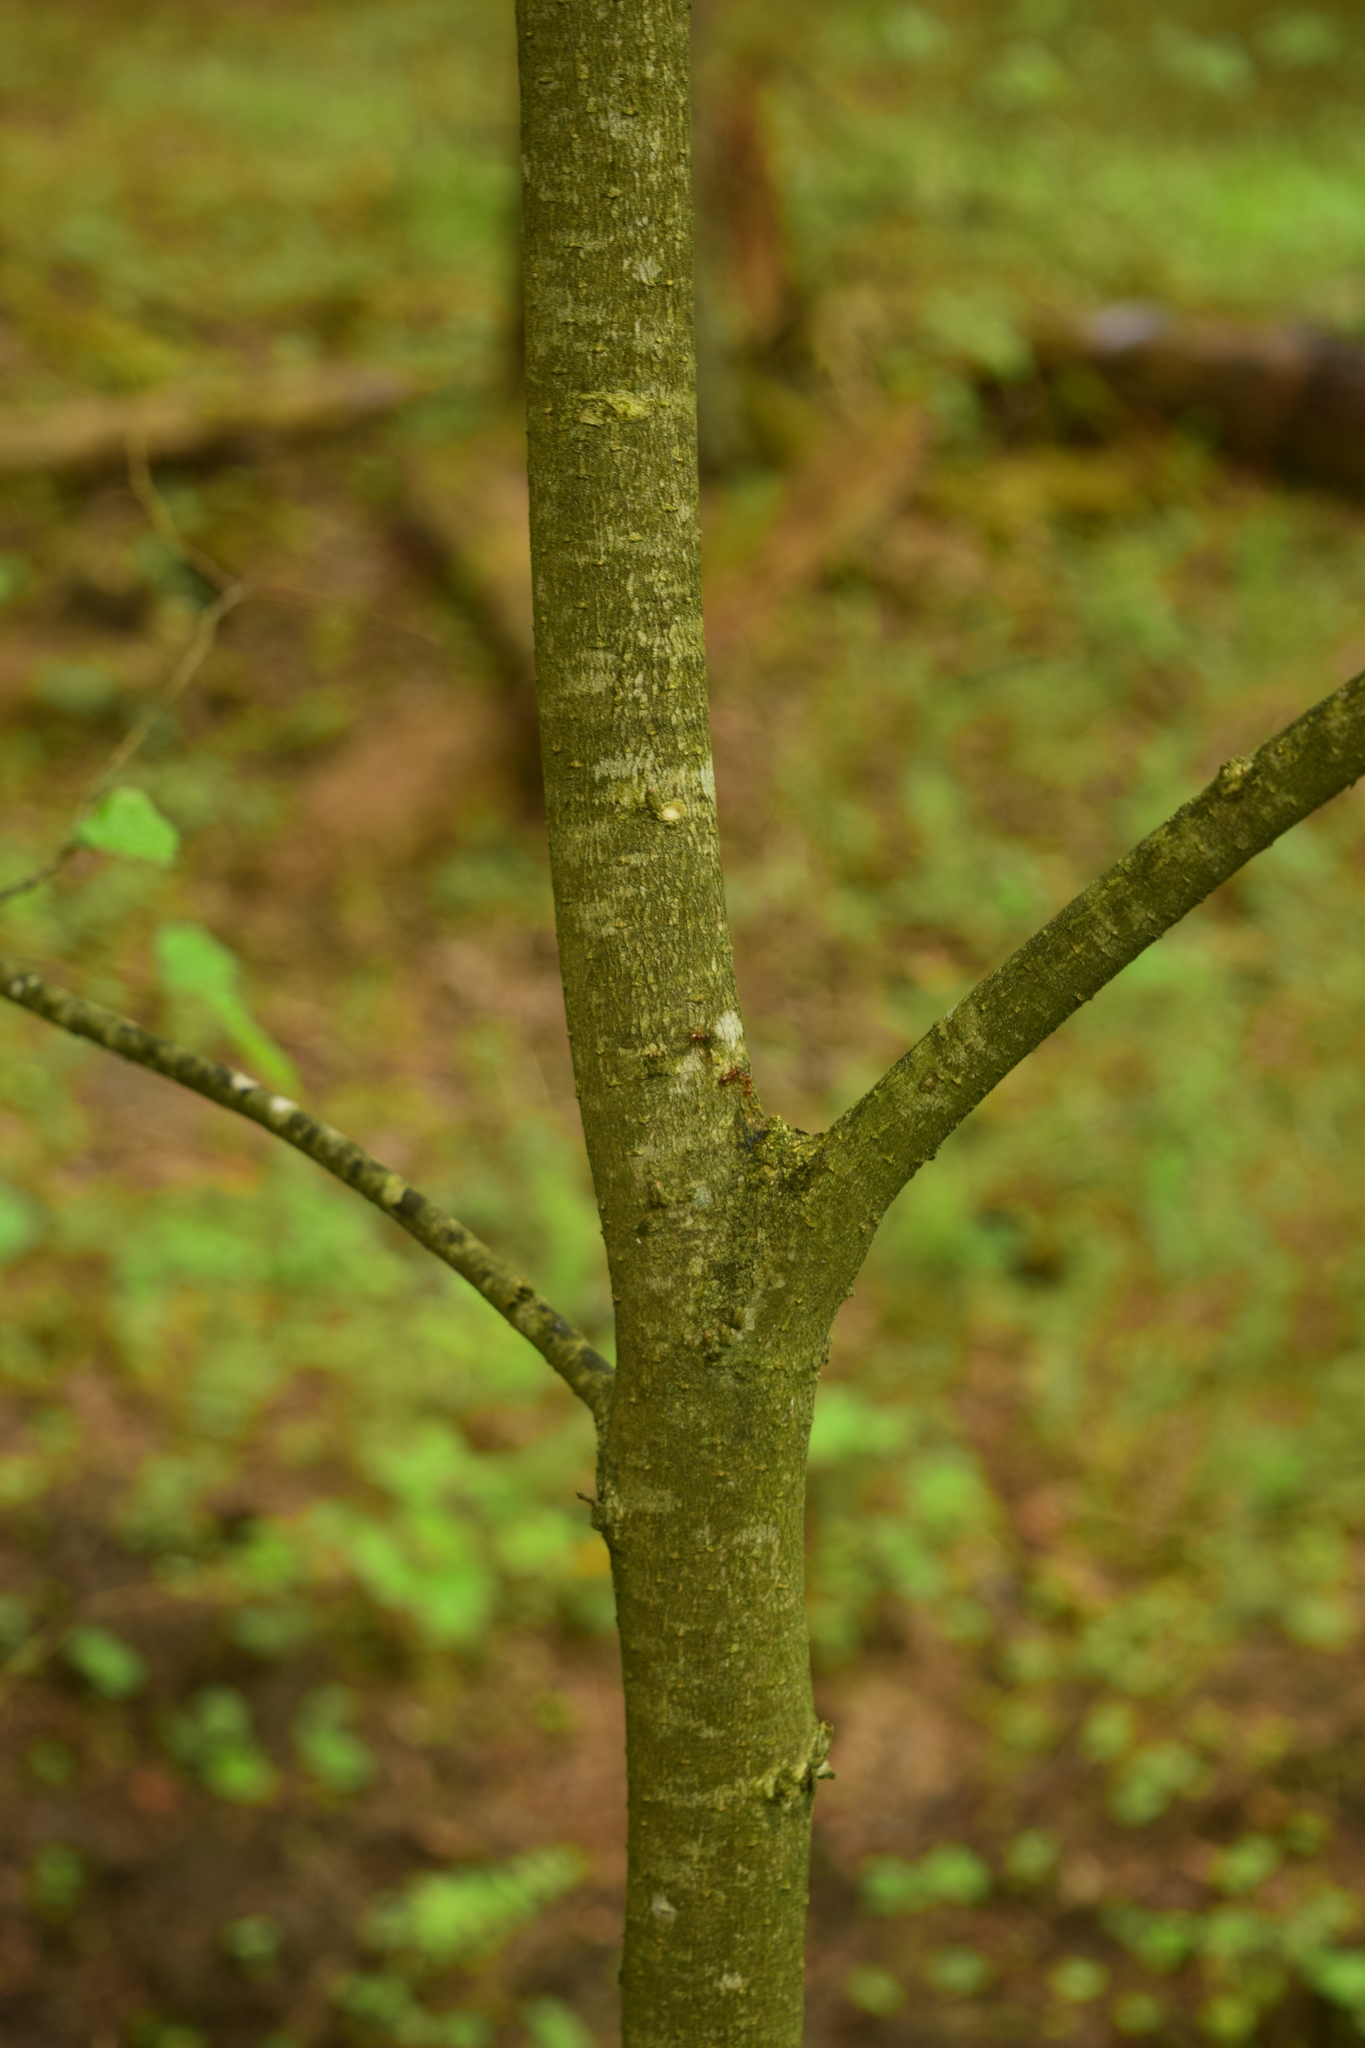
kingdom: Plantae
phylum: Tracheophyta
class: Magnoliopsida
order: Rosales
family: Ulmaceae
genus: Ulmus
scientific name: Ulmus laevis
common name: European white-elm
